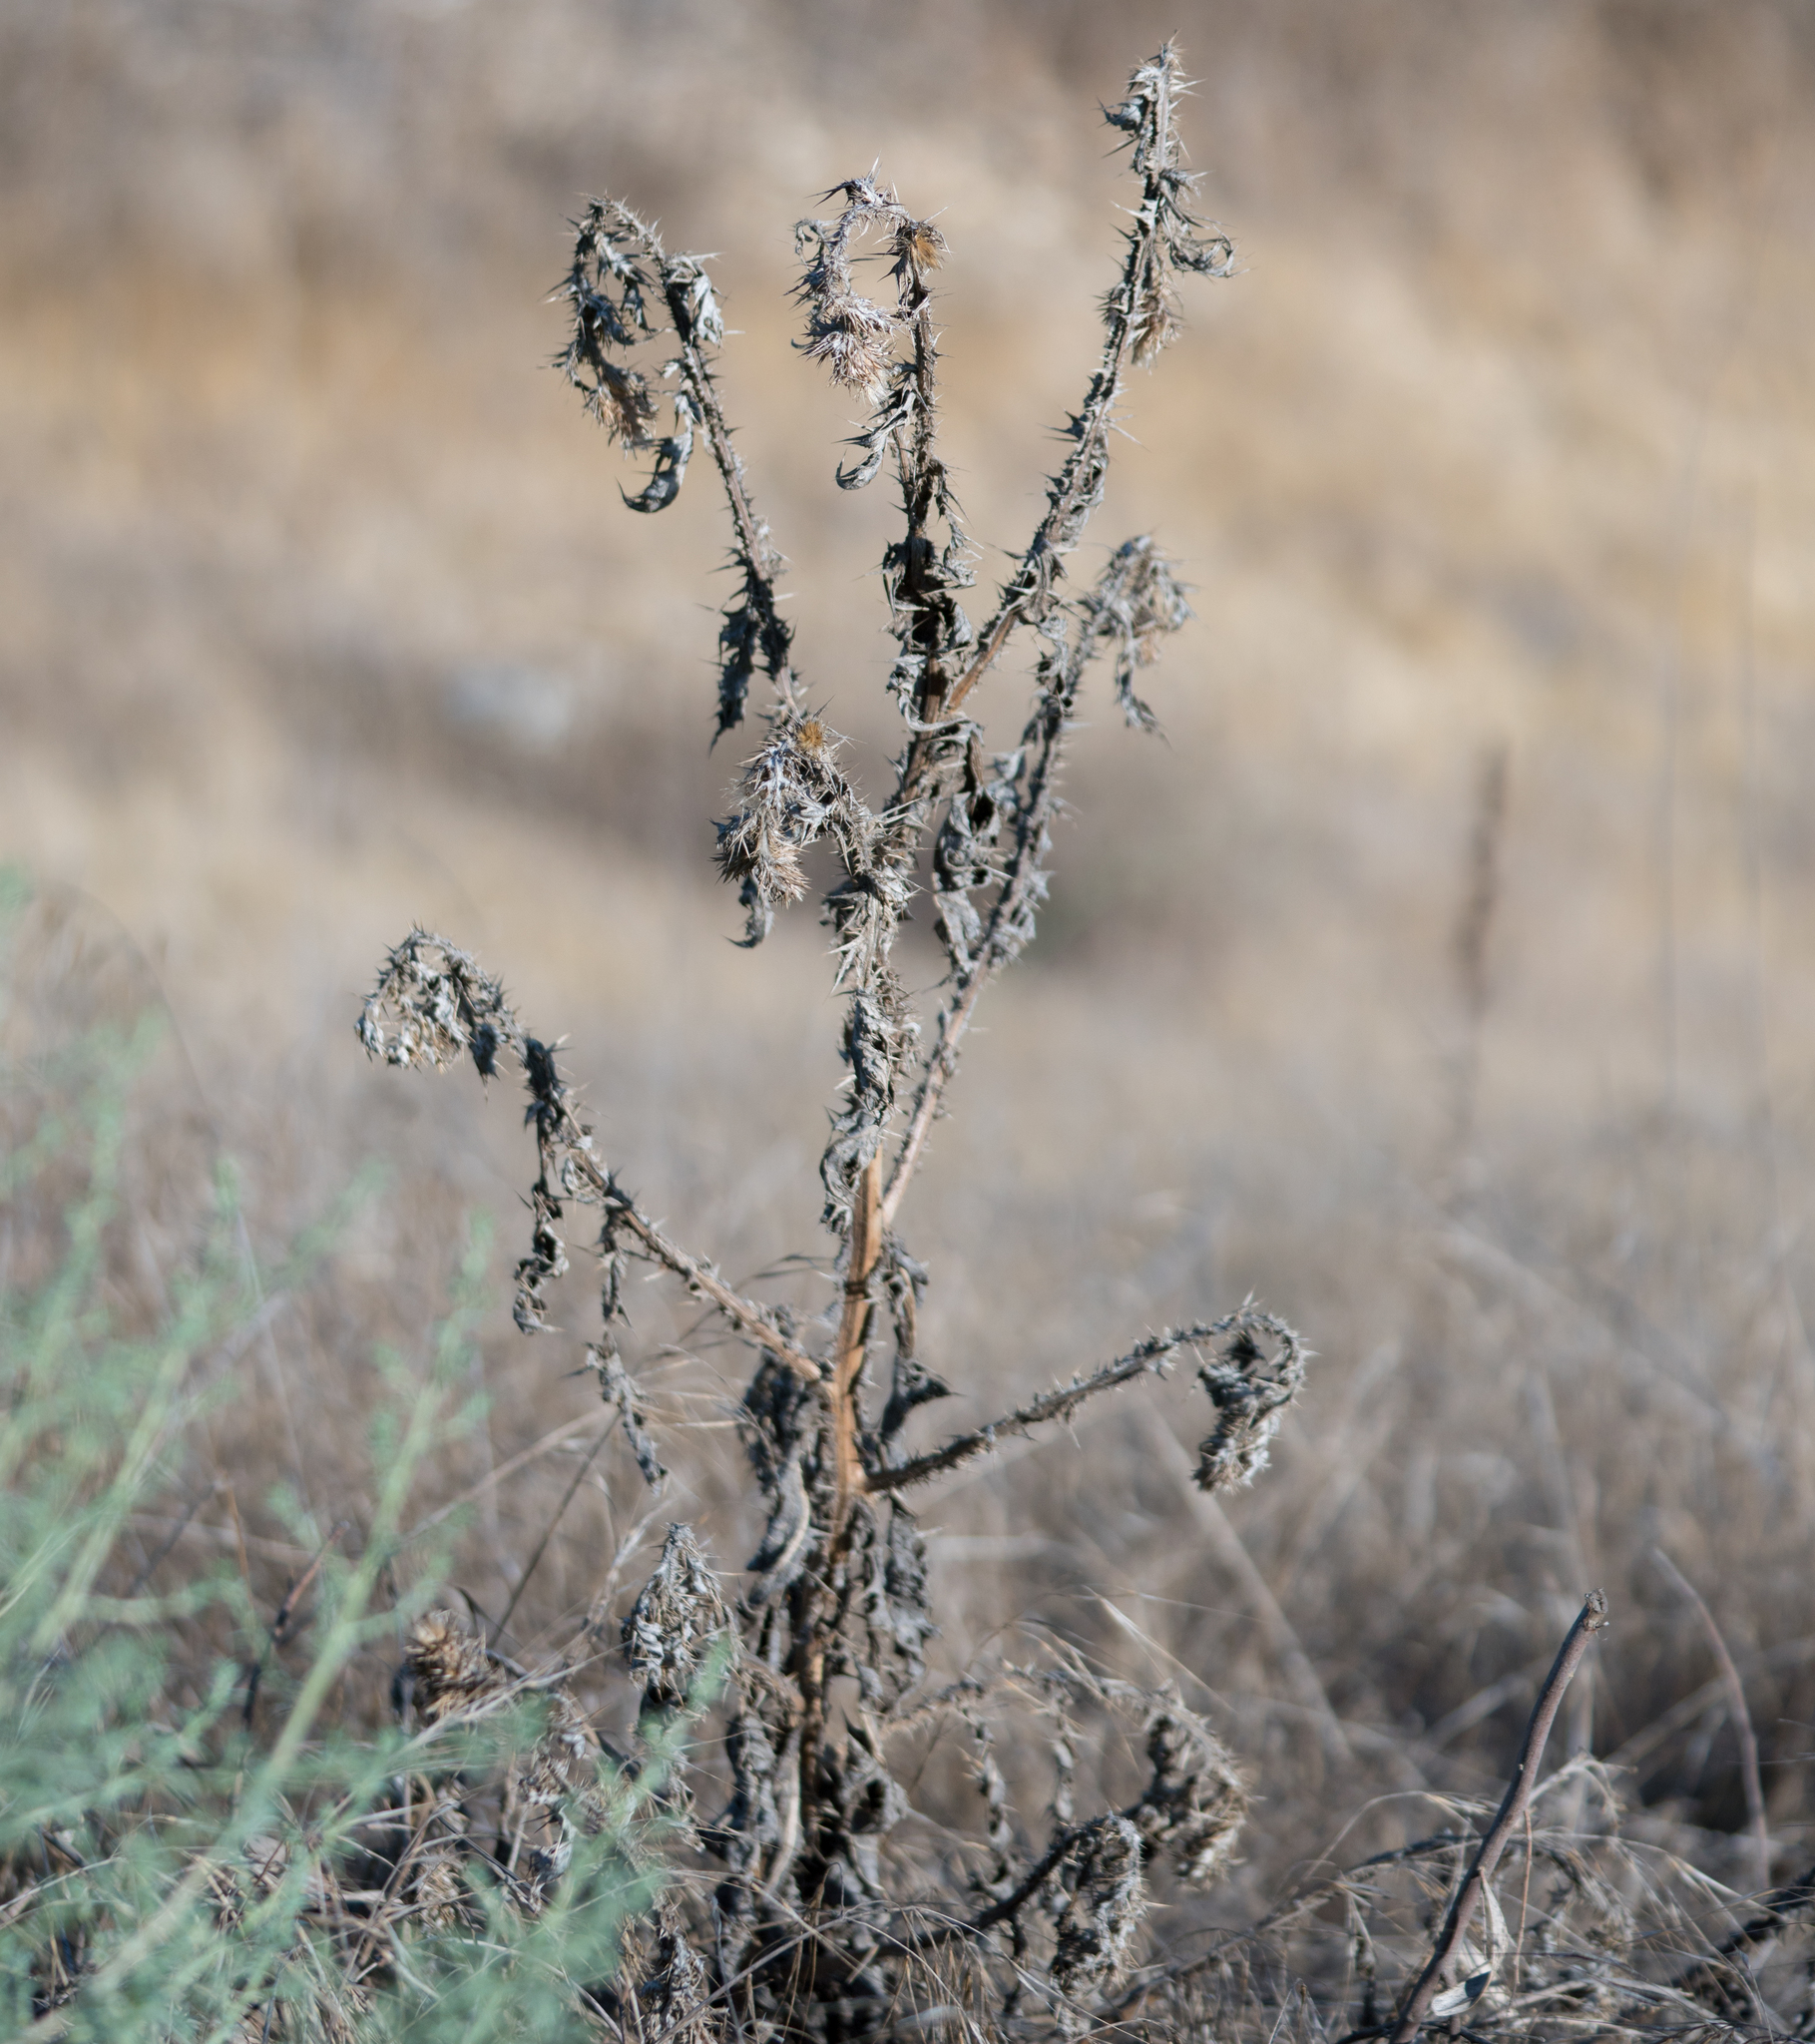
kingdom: Plantae
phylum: Tracheophyta
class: Magnoliopsida
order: Asterales
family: Asteraceae
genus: Carduus
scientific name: Carduus pycnocephalus
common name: Plymouth thistle
